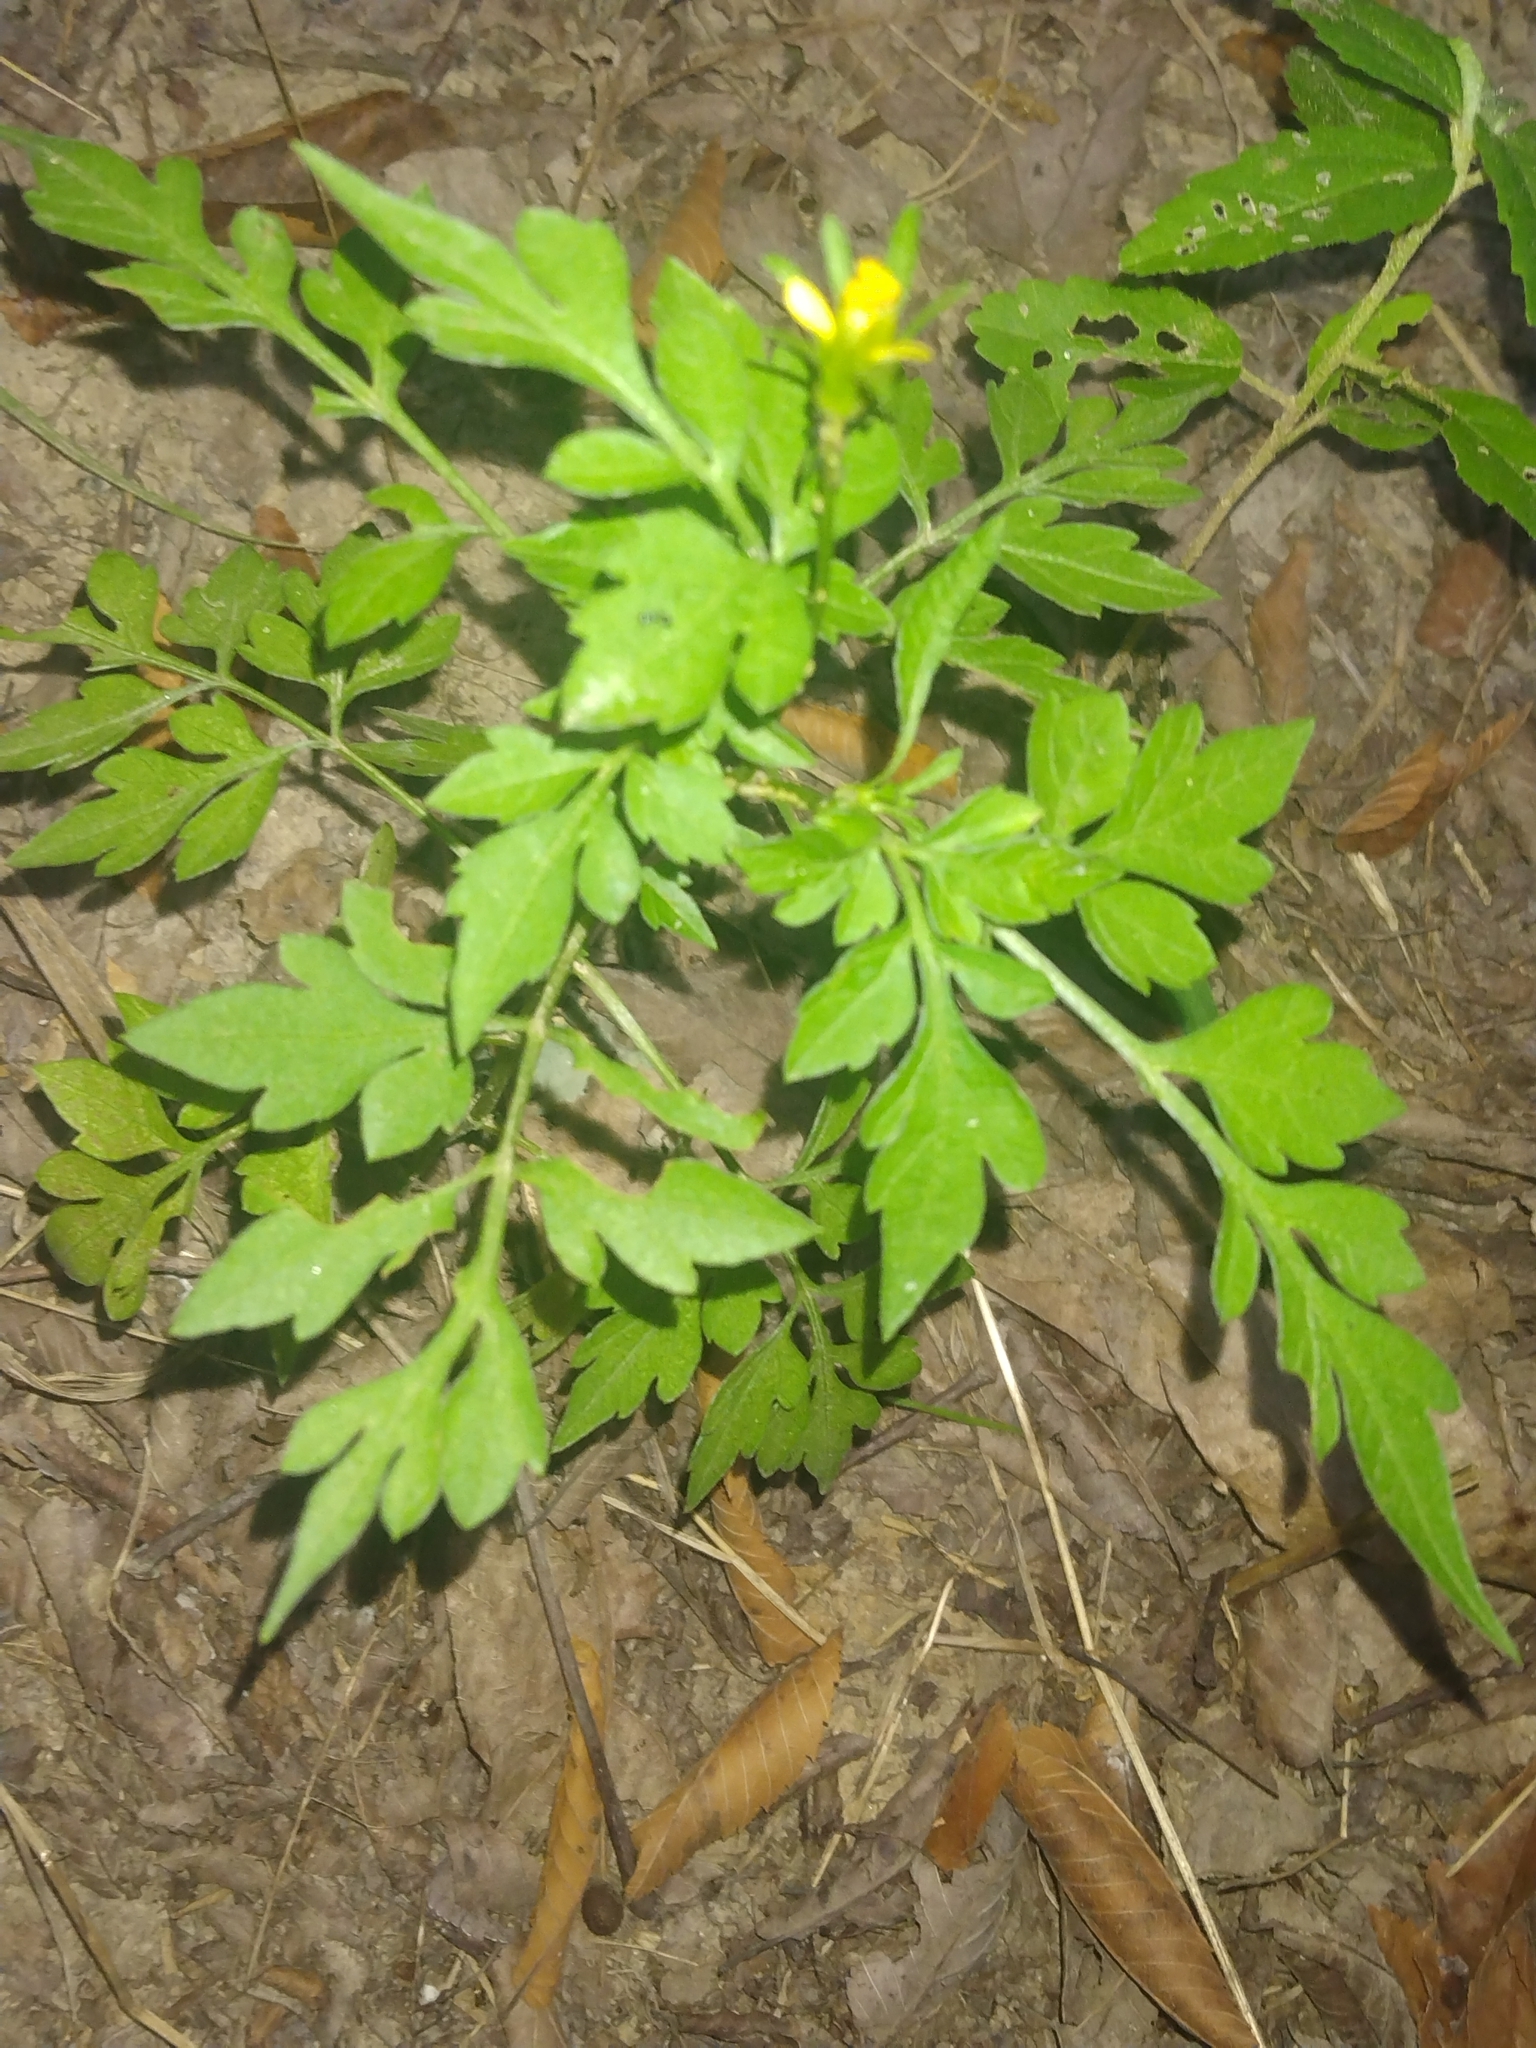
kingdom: Plantae
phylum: Tracheophyta
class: Magnoliopsida
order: Asterales
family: Asteraceae
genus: Bidens
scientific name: Bidens bipinnata
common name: Spanish-needles
